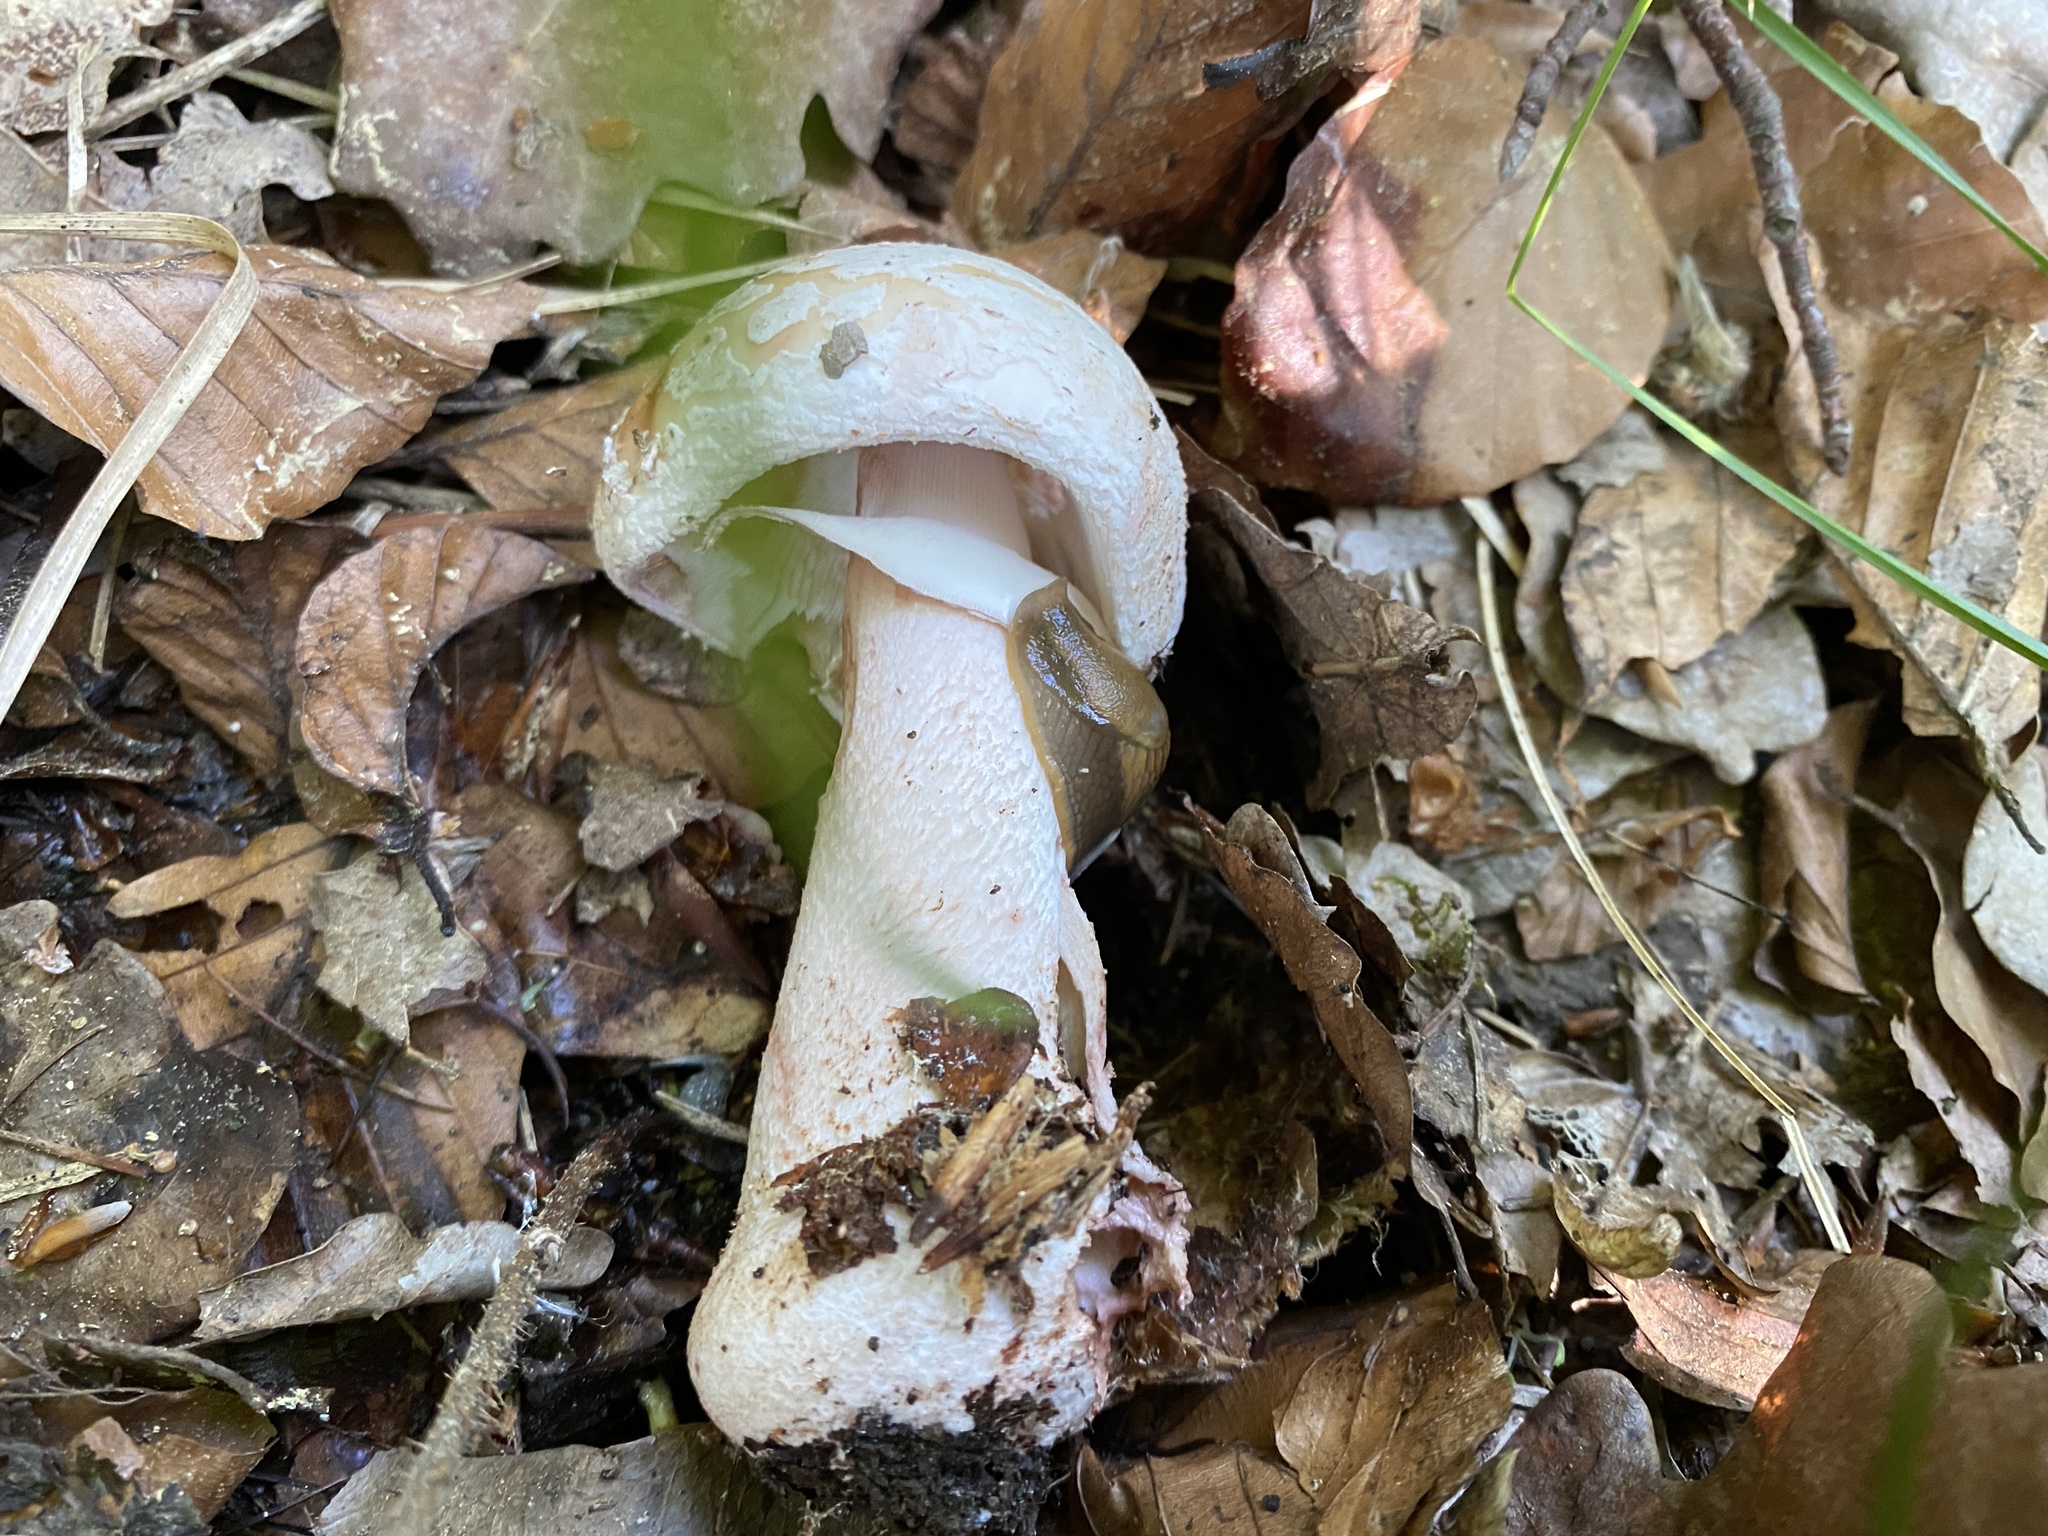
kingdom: Fungi
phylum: Basidiomycota
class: Agaricomycetes
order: Agaricales
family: Amanitaceae
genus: Amanita
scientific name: Amanita rubescens
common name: Blusher
